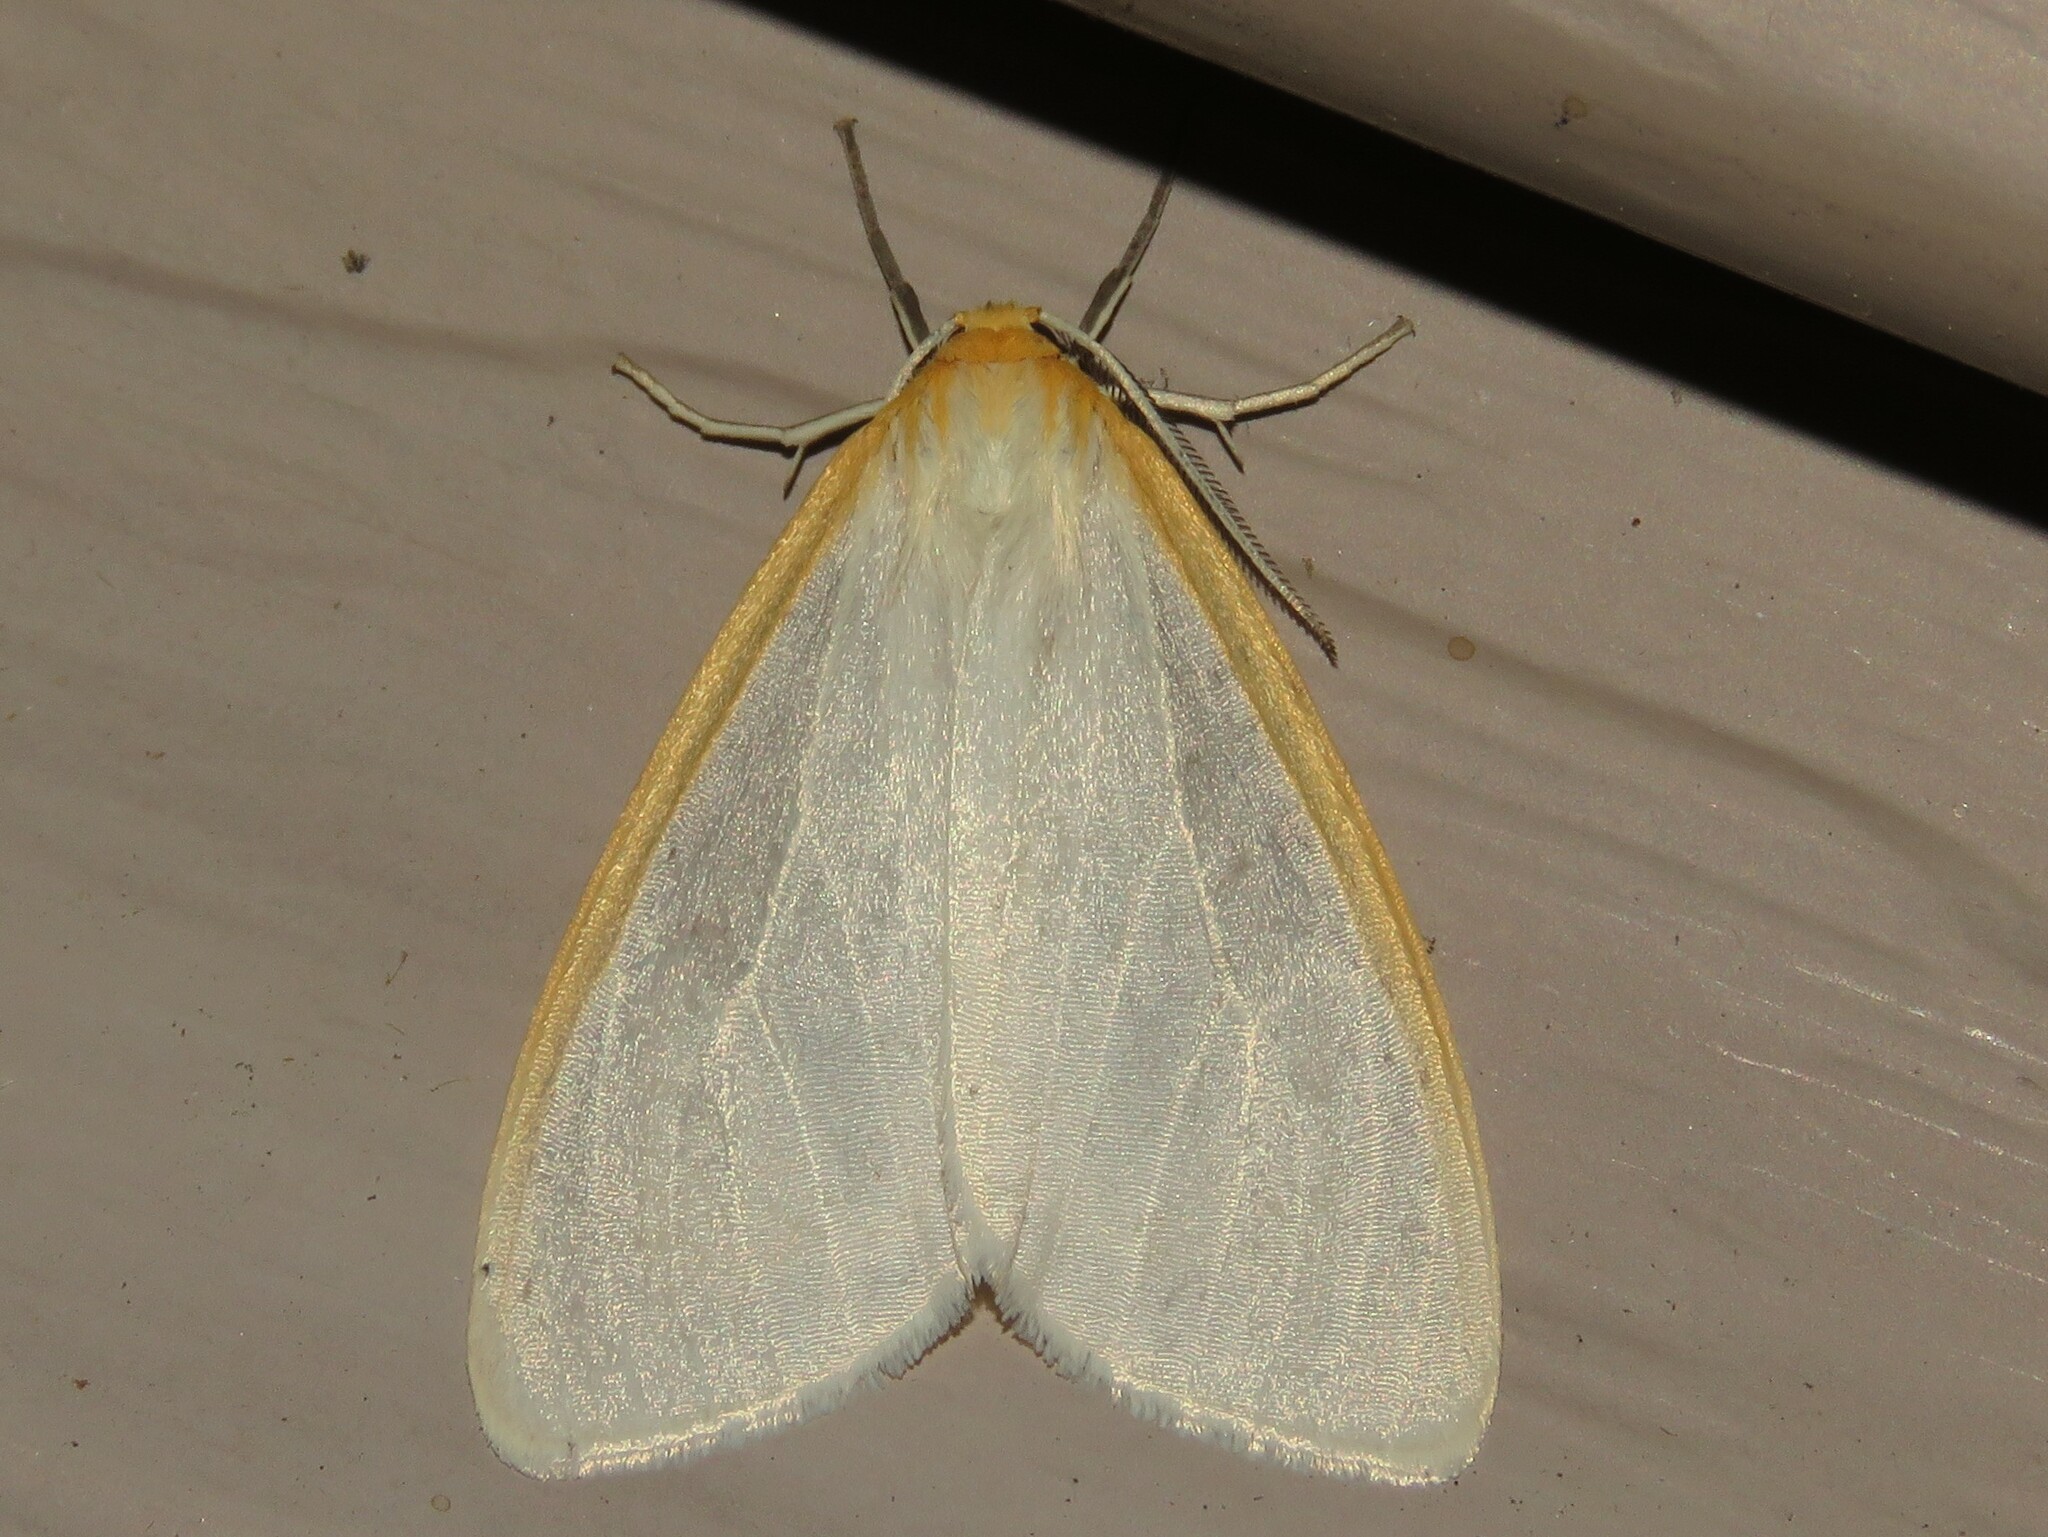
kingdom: Animalia
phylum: Arthropoda
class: Insecta
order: Lepidoptera
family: Erebidae
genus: Cycnia
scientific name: Cycnia tenera
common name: Delicate cycnia moth
